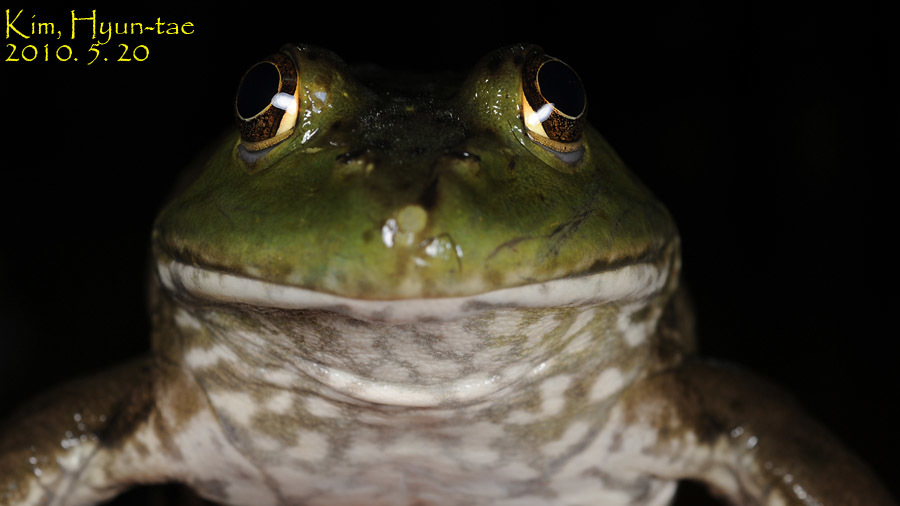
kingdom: Animalia
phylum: Chordata
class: Amphibia
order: Anura
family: Ranidae
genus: Lithobates
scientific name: Lithobates catesbeianus
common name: American bullfrog
